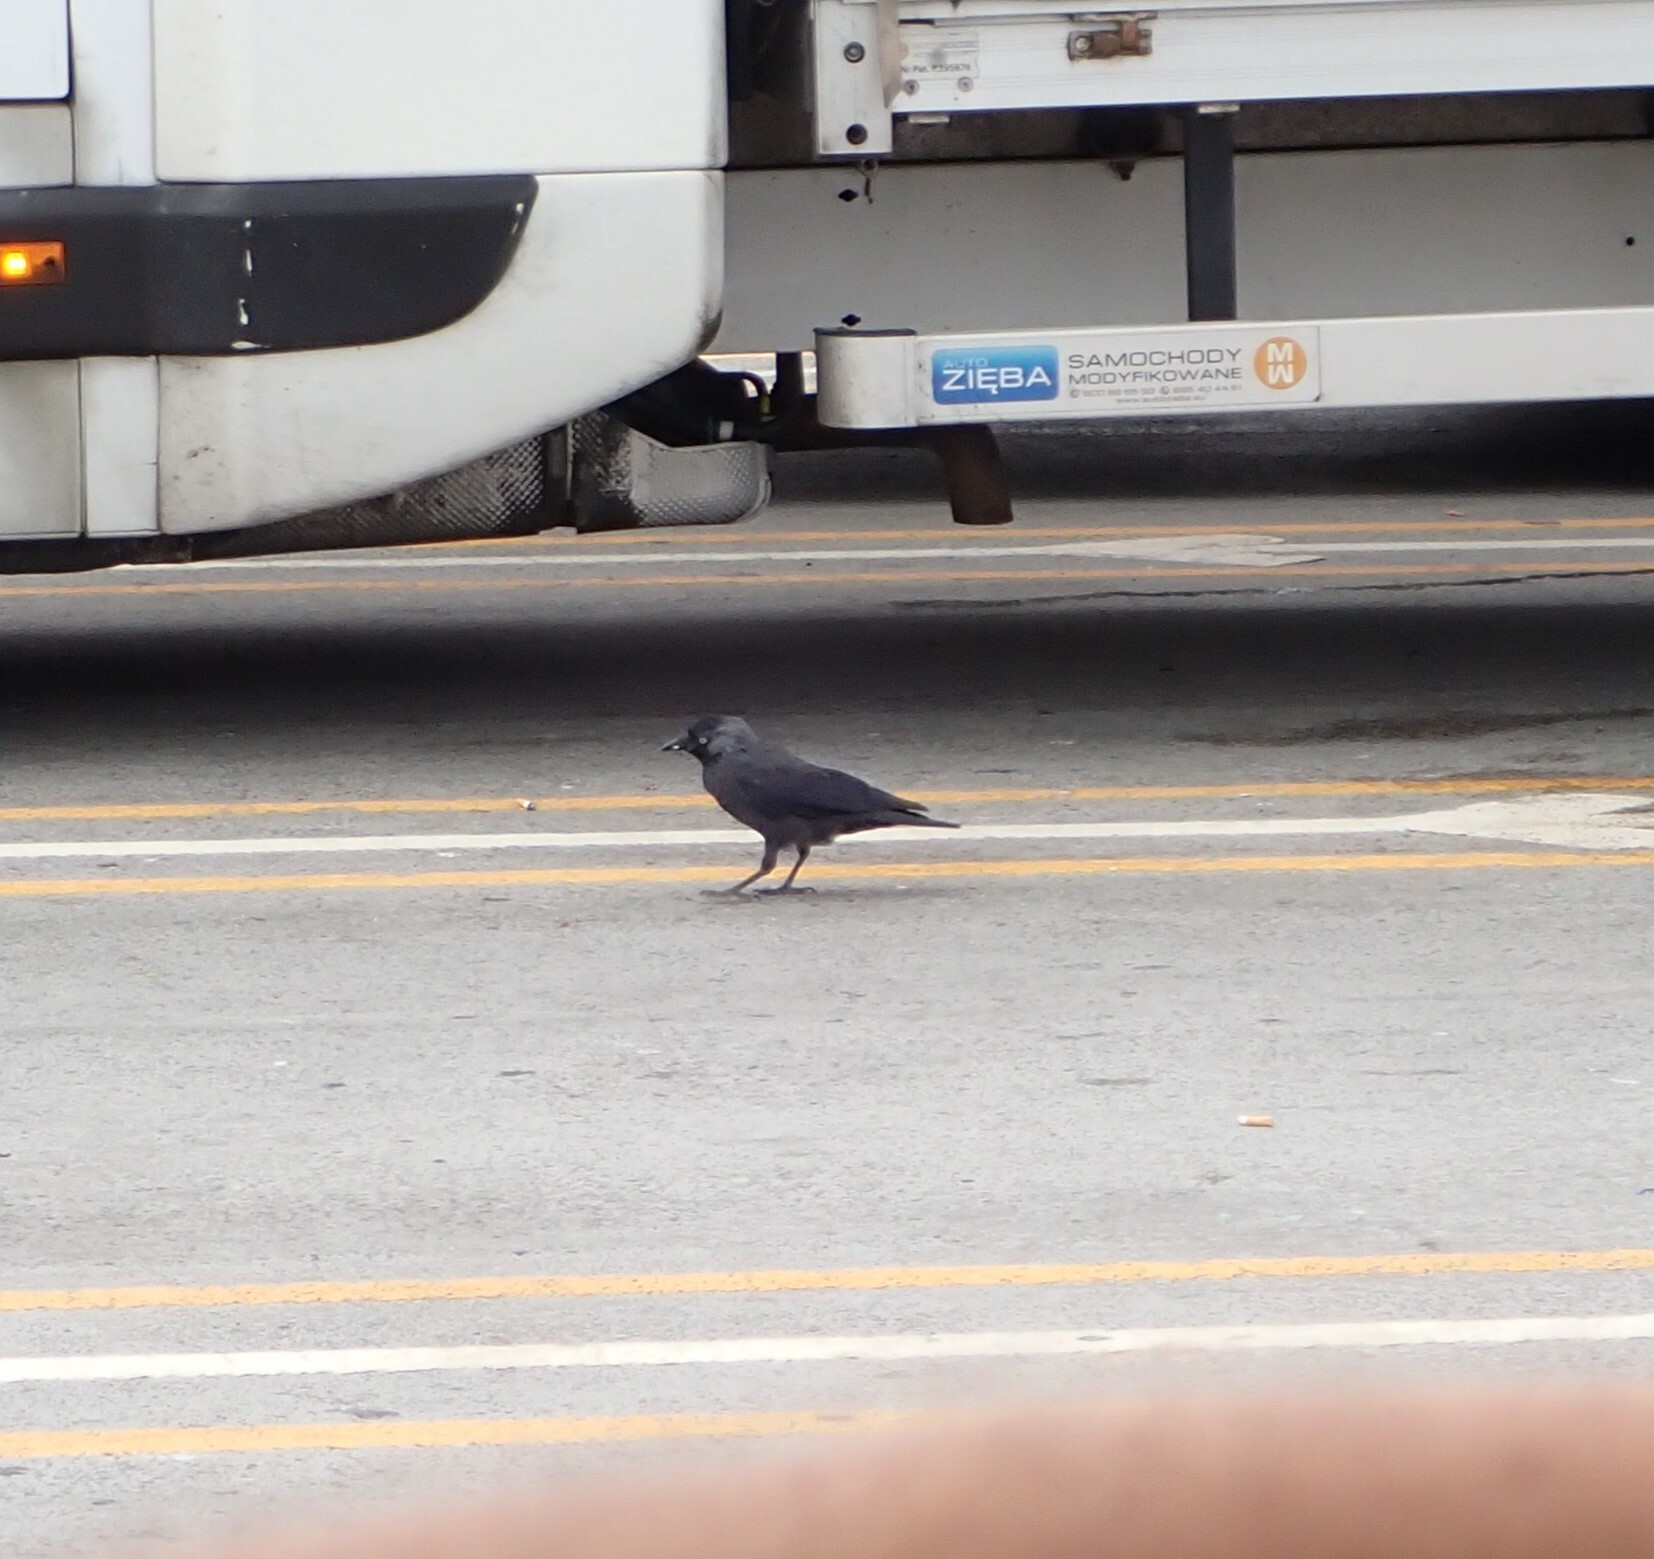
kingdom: Animalia
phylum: Chordata
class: Aves
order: Passeriformes
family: Corvidae
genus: Coloeus
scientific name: Coloeus monedula
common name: Western jackdaw
